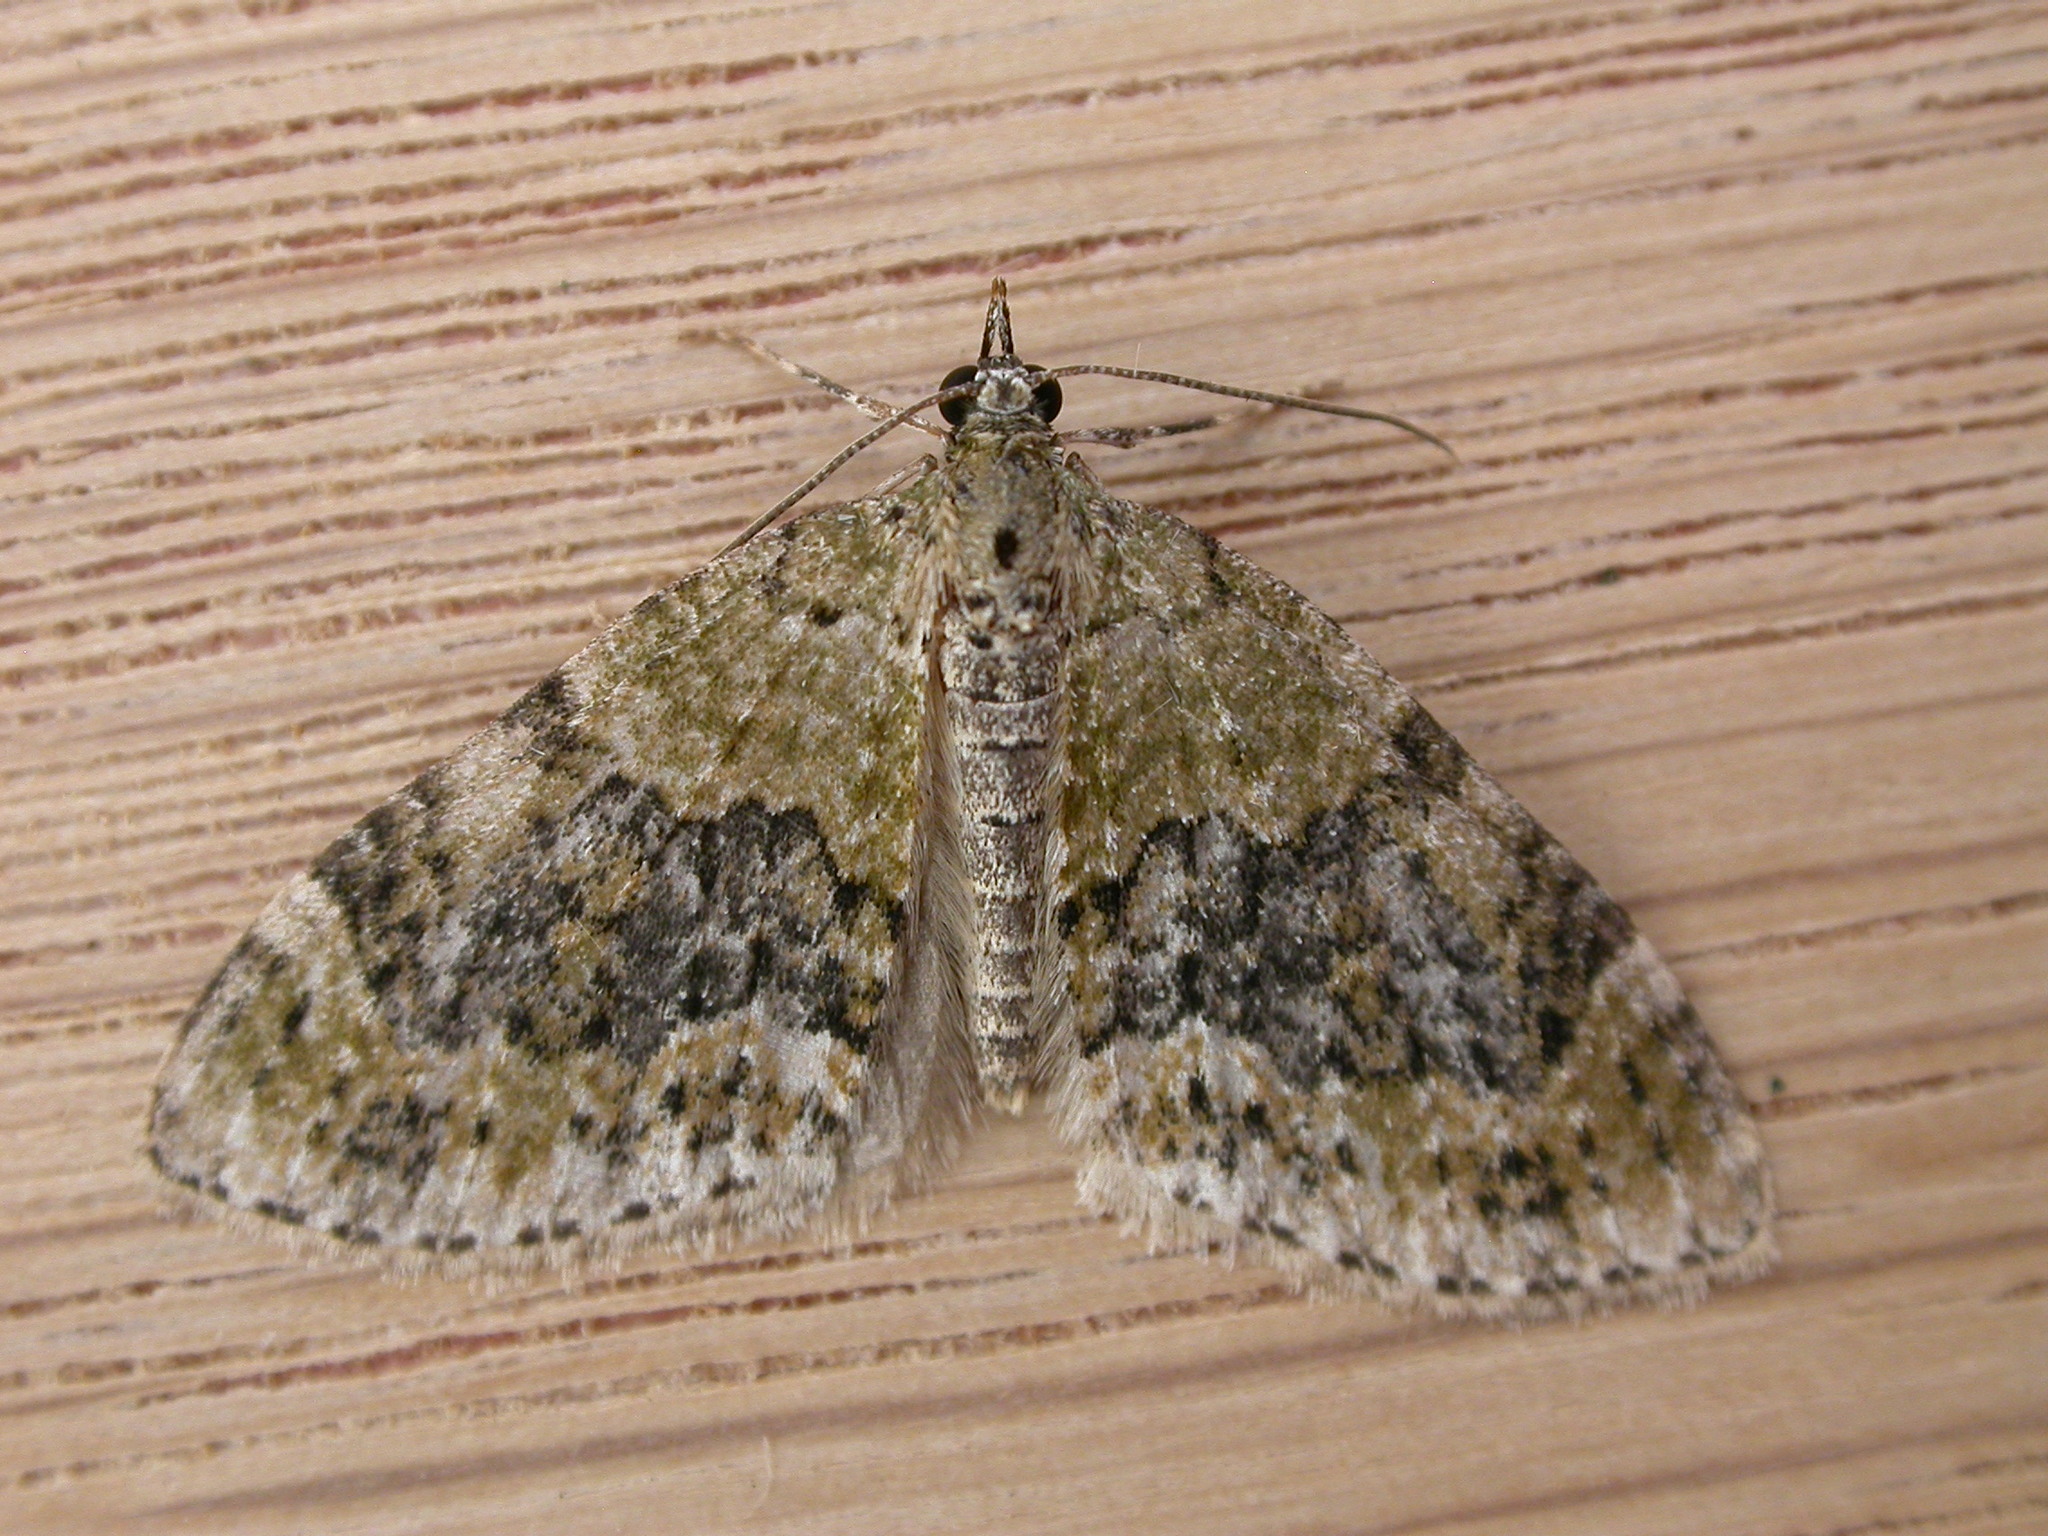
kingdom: Animalia
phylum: Arthropoda
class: Insecta
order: Lepidoptera
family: Geometridae
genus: Acasis
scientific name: Acasis viretata
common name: Yellow-barred brindle
